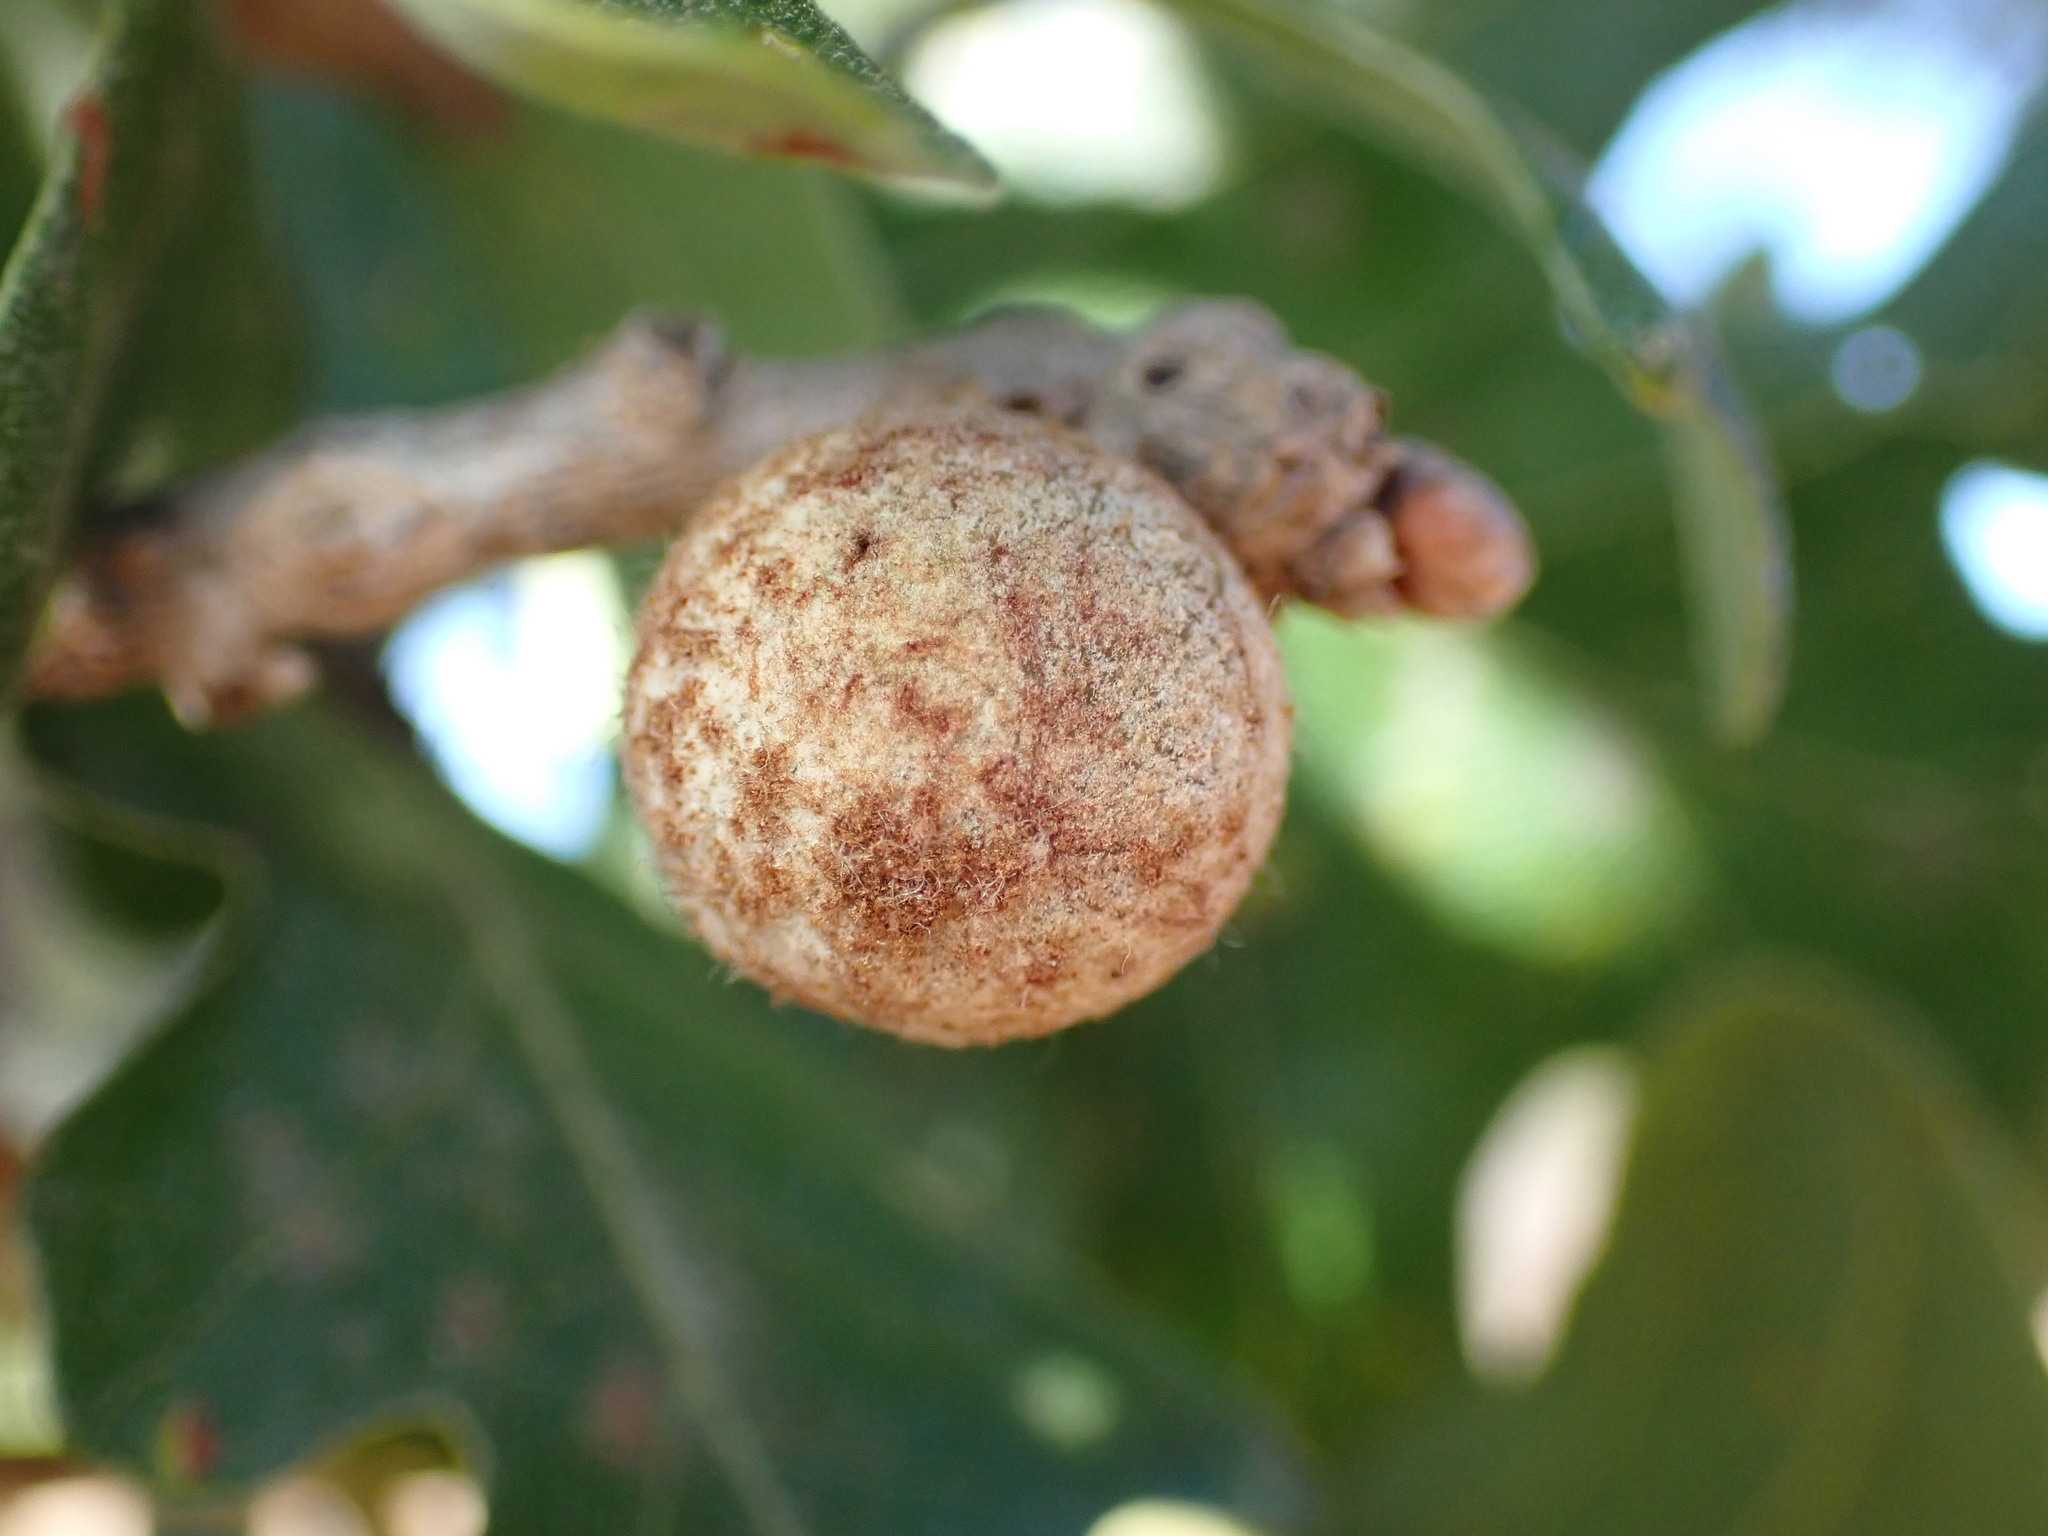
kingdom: Animalia
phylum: Arthropoda
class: Insecta
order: Hymenoptera
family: Cynipidae
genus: Burnettweldia
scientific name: Burnettweldia
